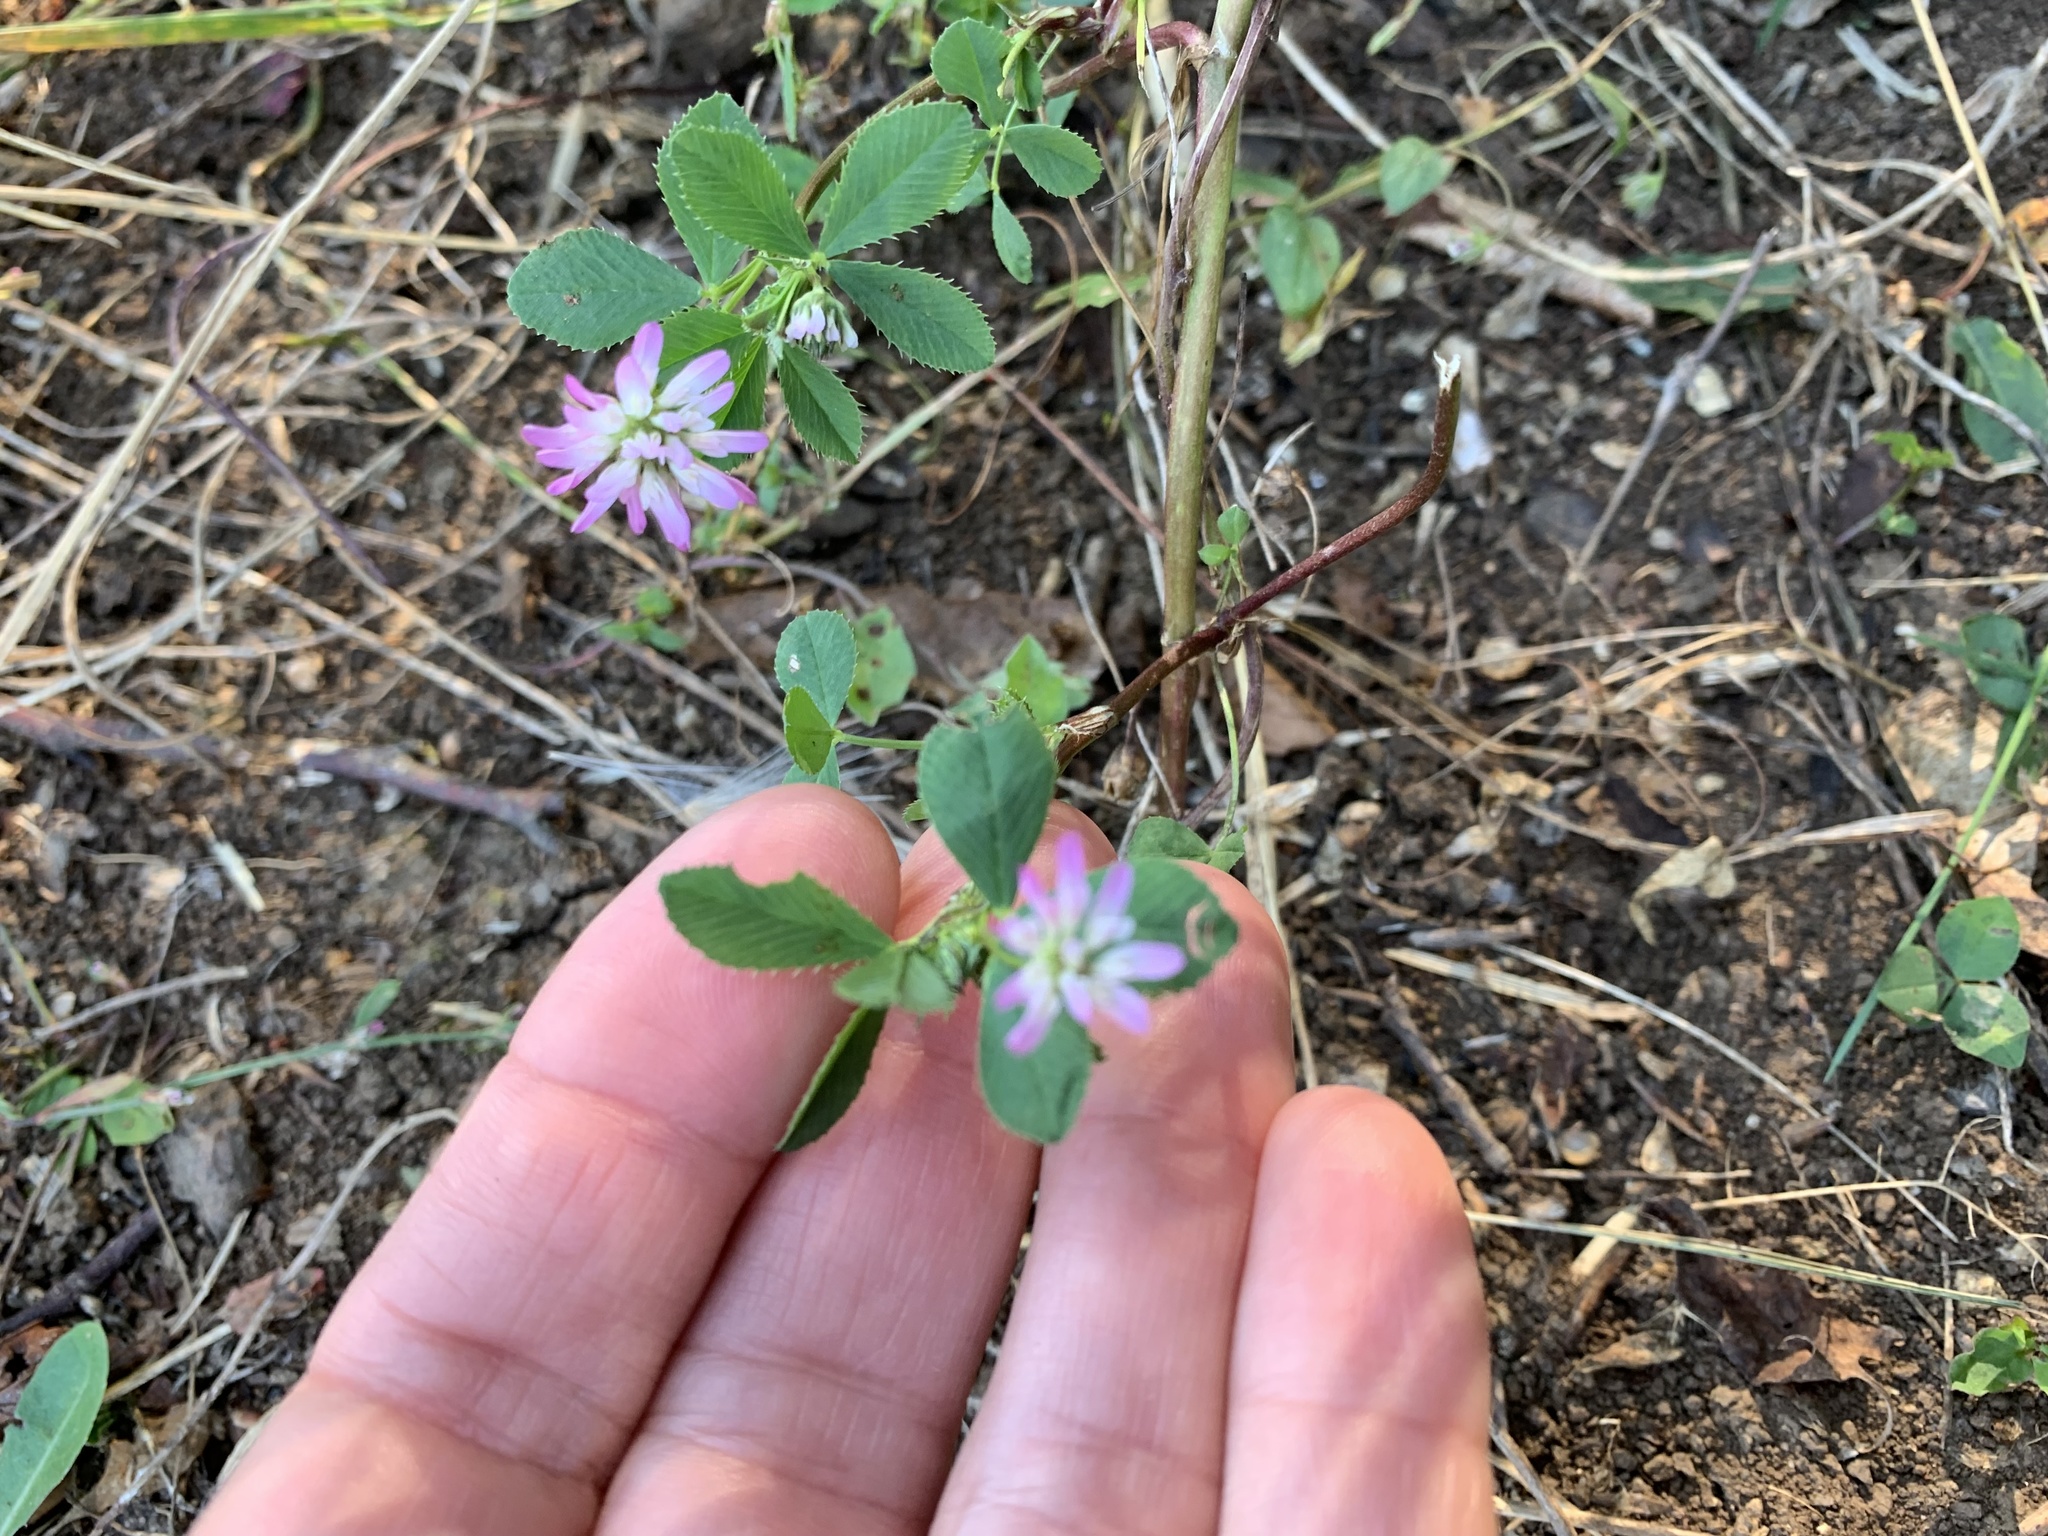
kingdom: Plantae
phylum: Tracheophyta
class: Magnoliopsida
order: Fabales
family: Fabaceae
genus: Trifolium
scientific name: Trifolium resupinatum
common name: Reversed clover
